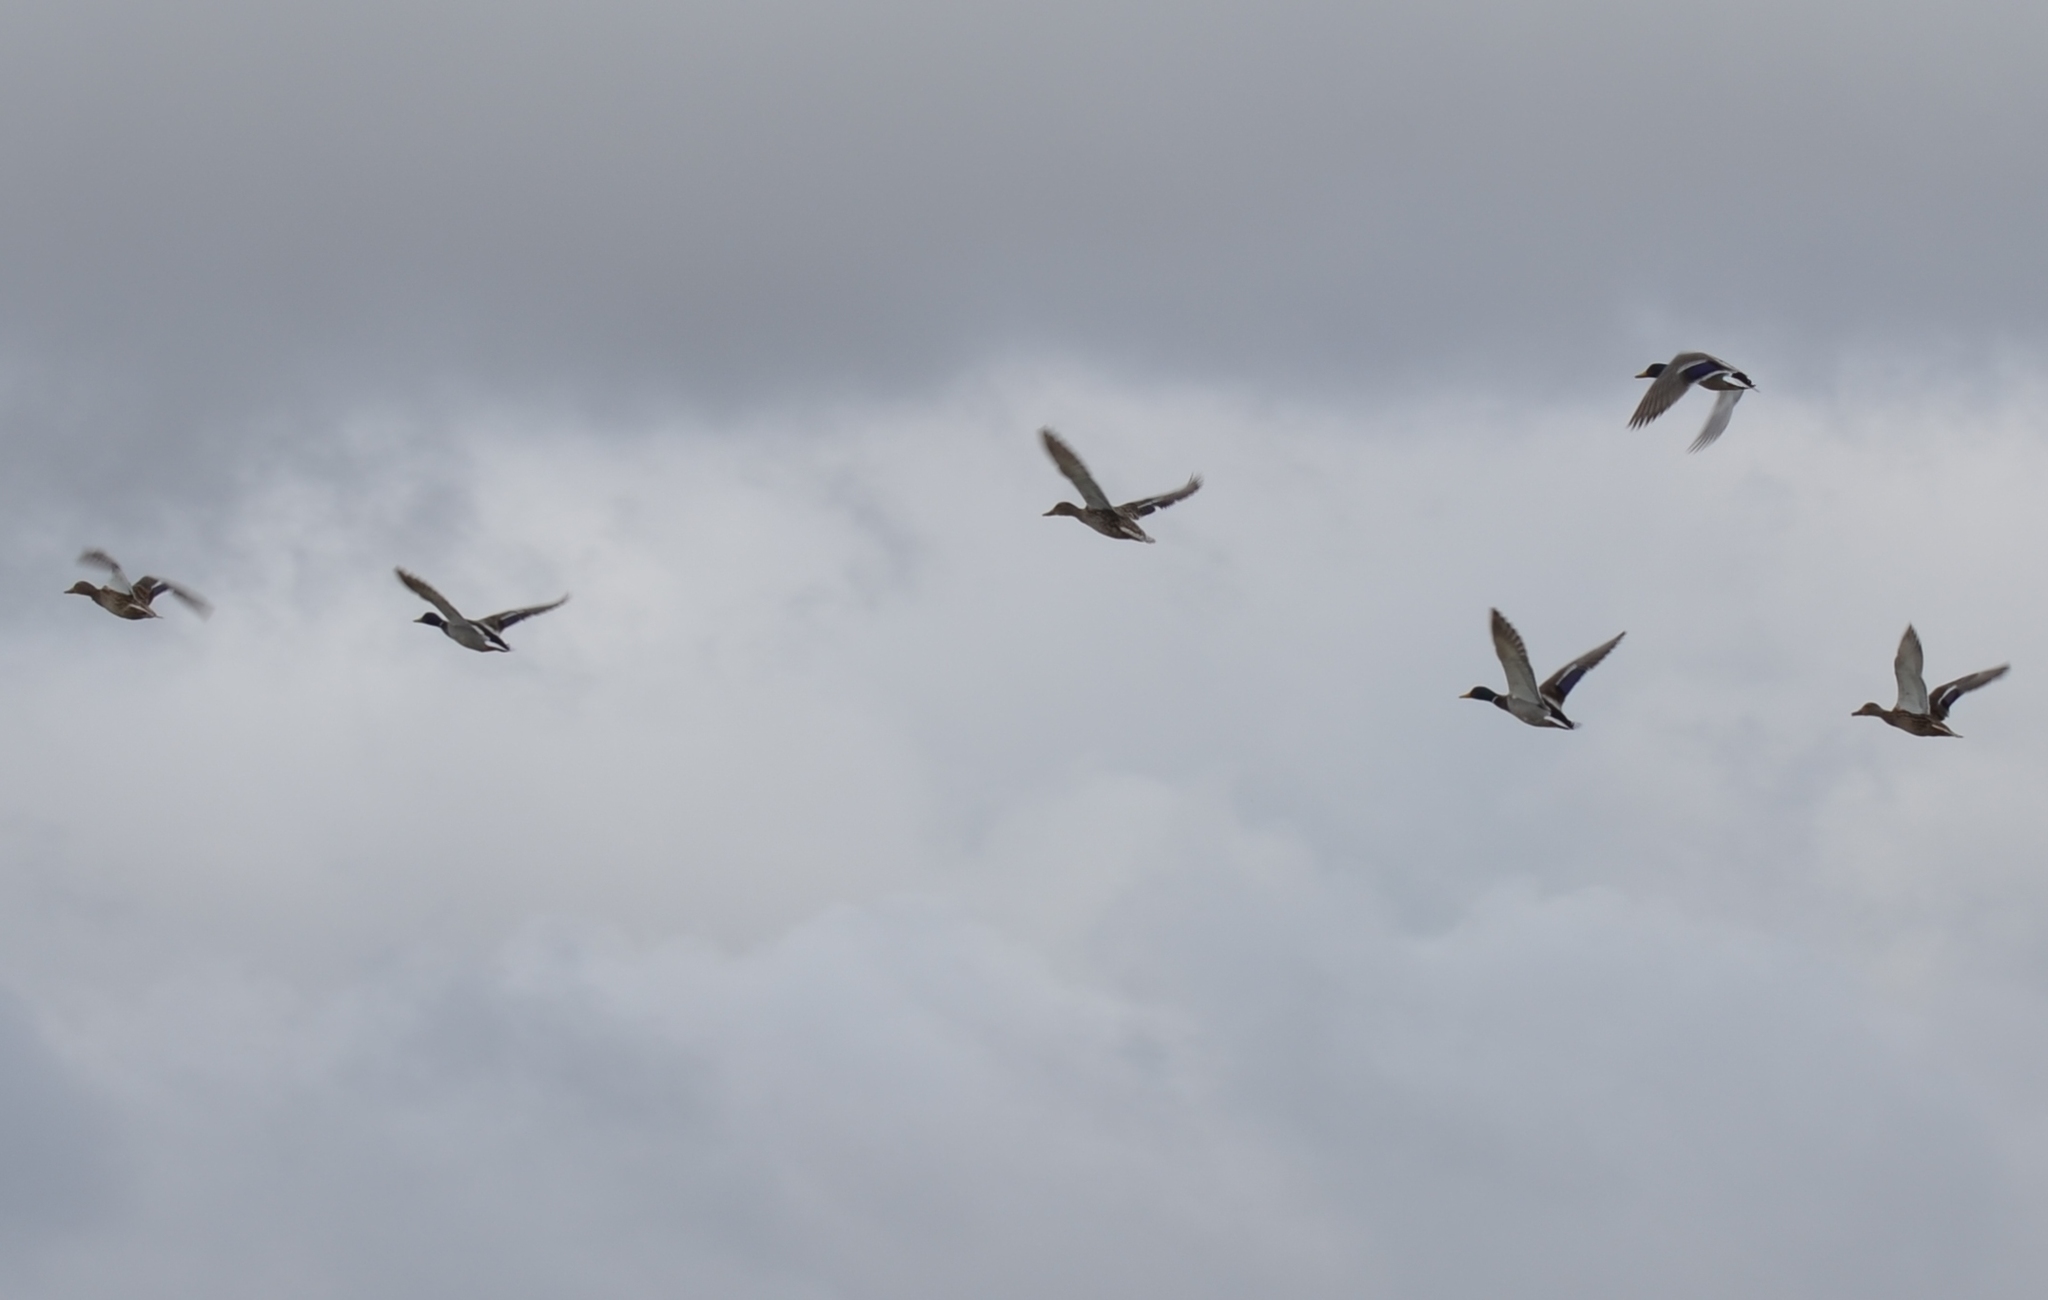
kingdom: Animalia
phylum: Chordata
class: Aves
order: Anseriformes
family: Anatidae
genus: Anas
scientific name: Anas platyrhynchos
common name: Mallard
